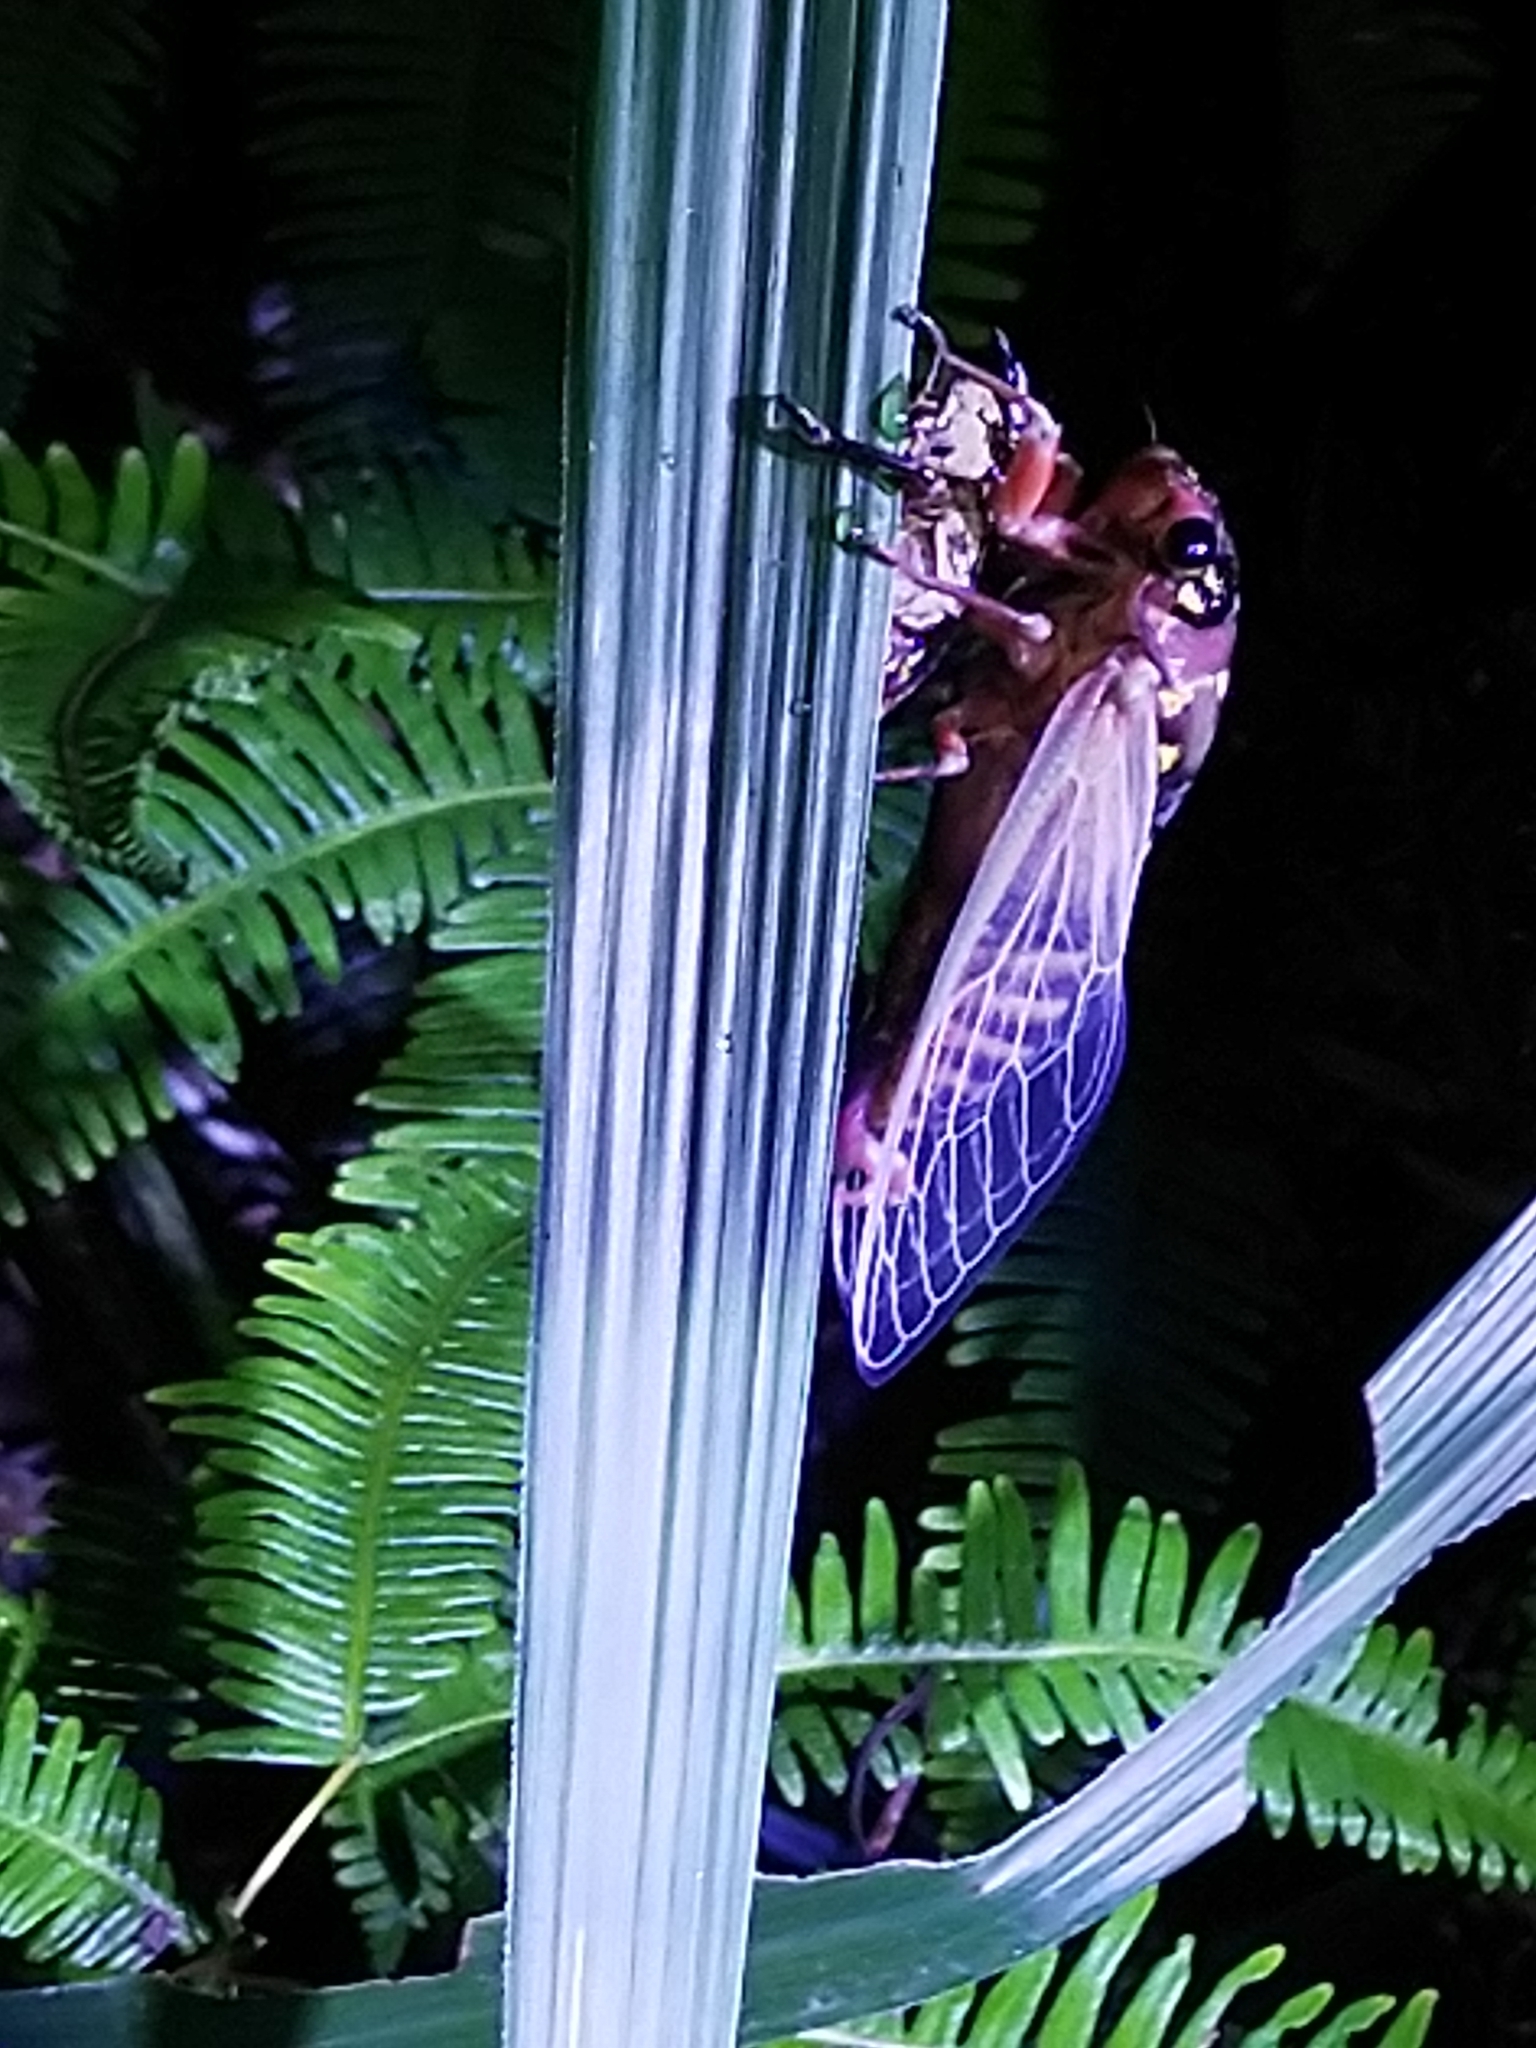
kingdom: Animalia
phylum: Arthropoda
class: Insecta
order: Hemiptera
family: Cicadidae
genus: Cryptotympana
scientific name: Cryptotympana holsti
